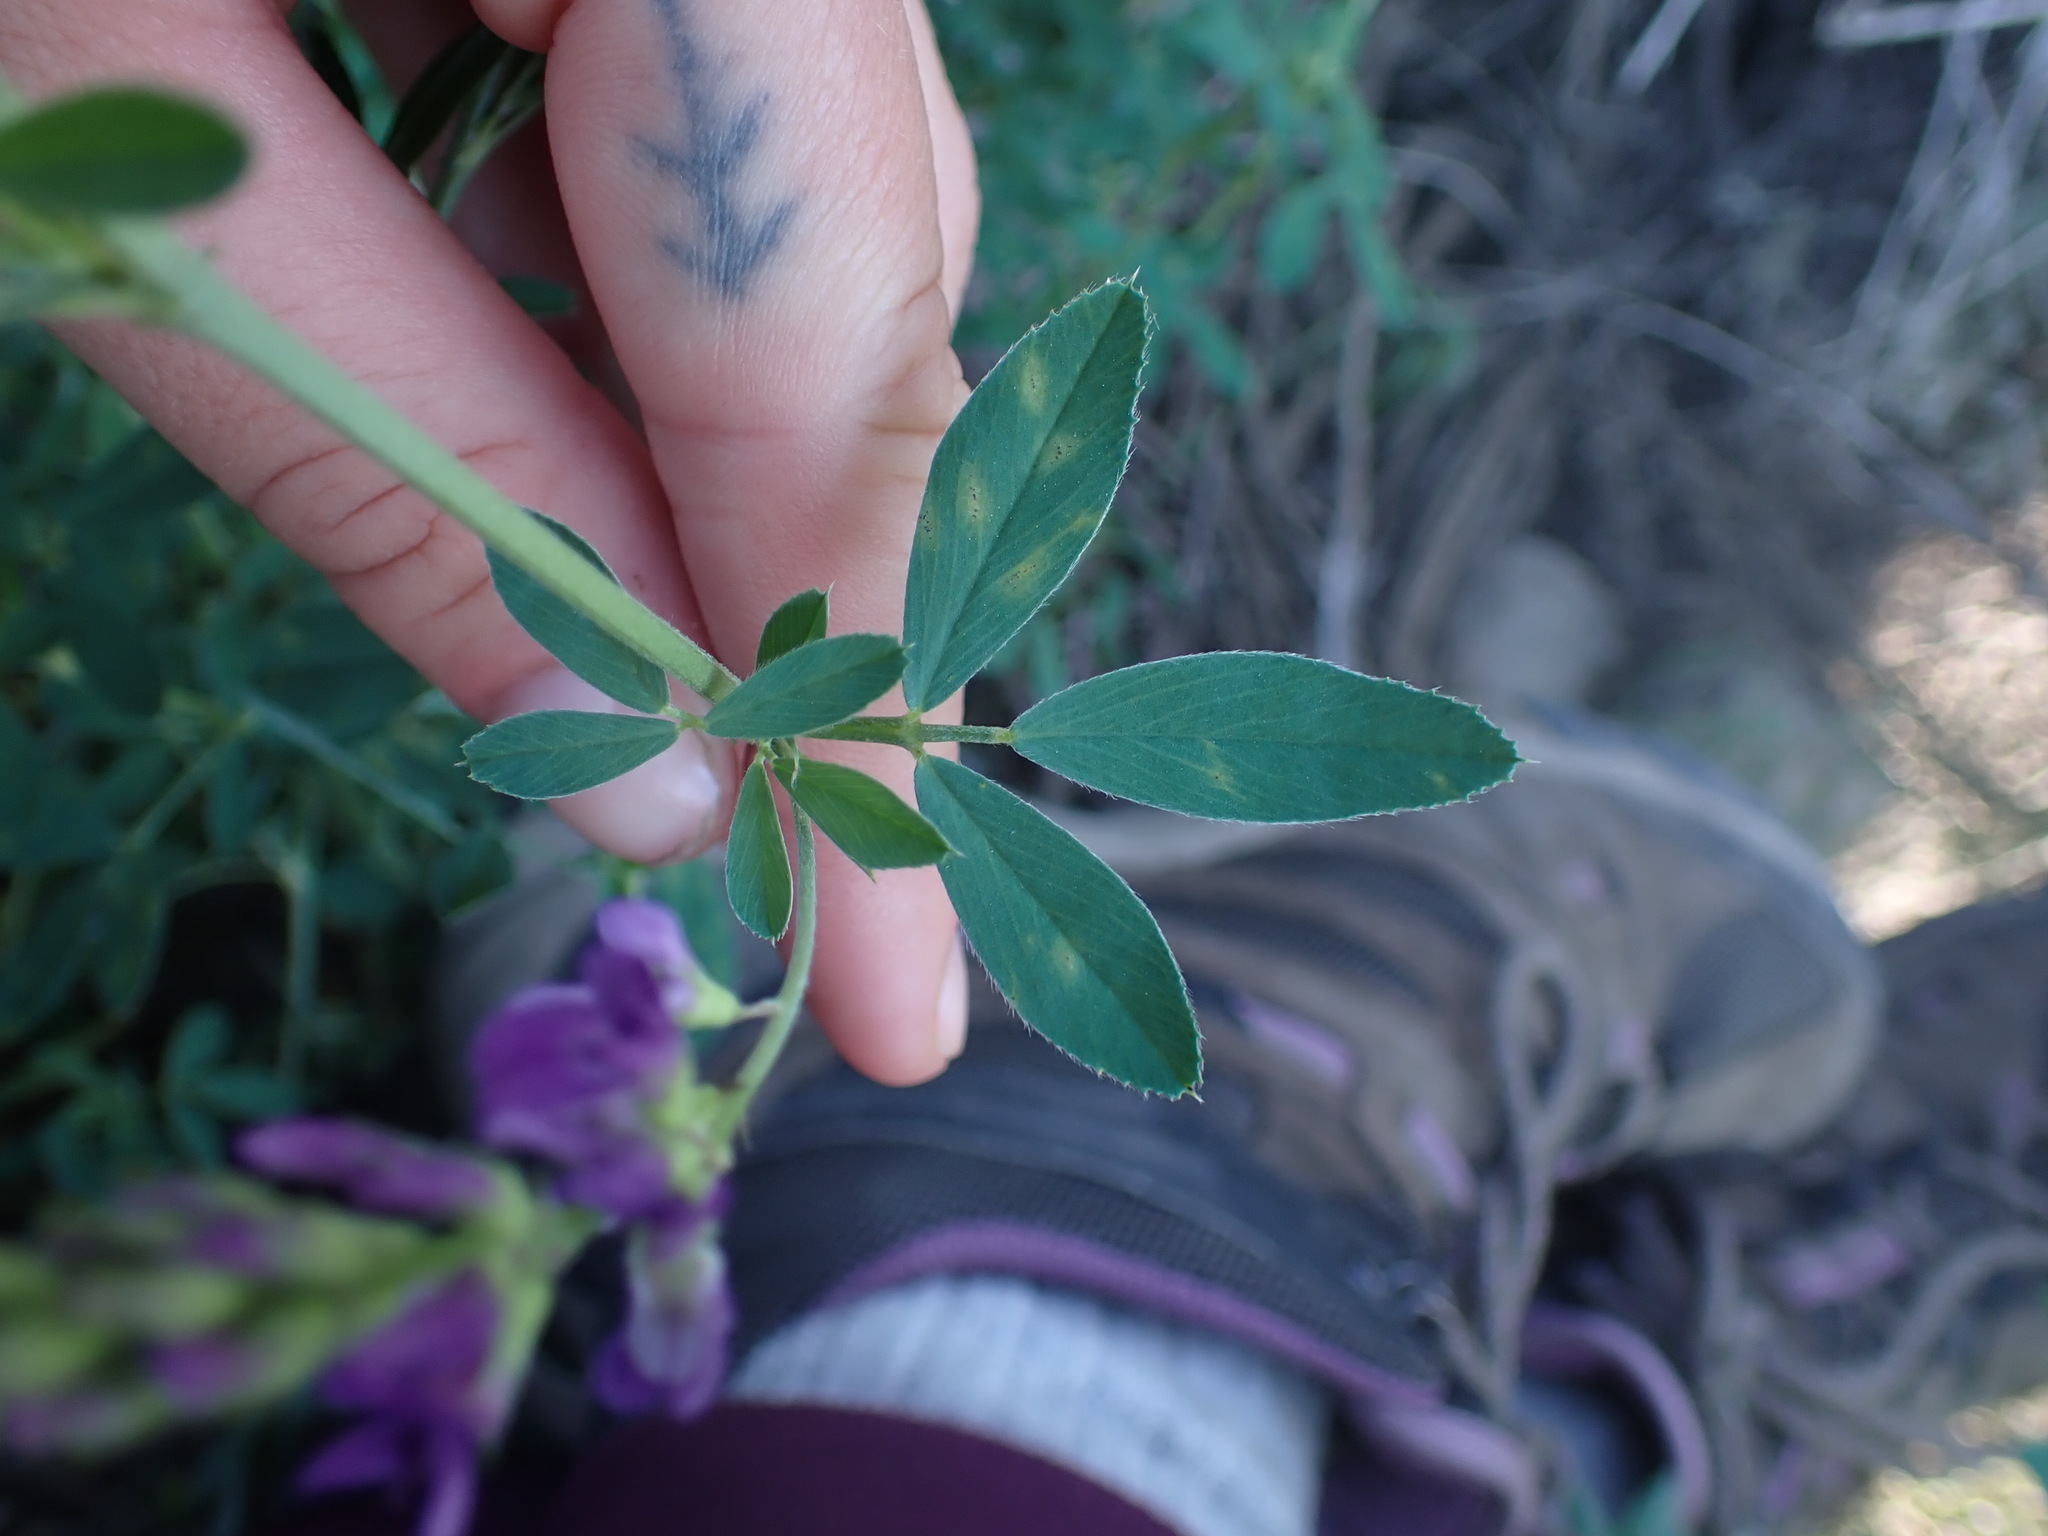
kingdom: Plantae
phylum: Tracheophyta
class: Magnoliopsida
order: Fabales
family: Fabaceae
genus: Medicago
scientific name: Medicago sativa
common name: Alfalfa
